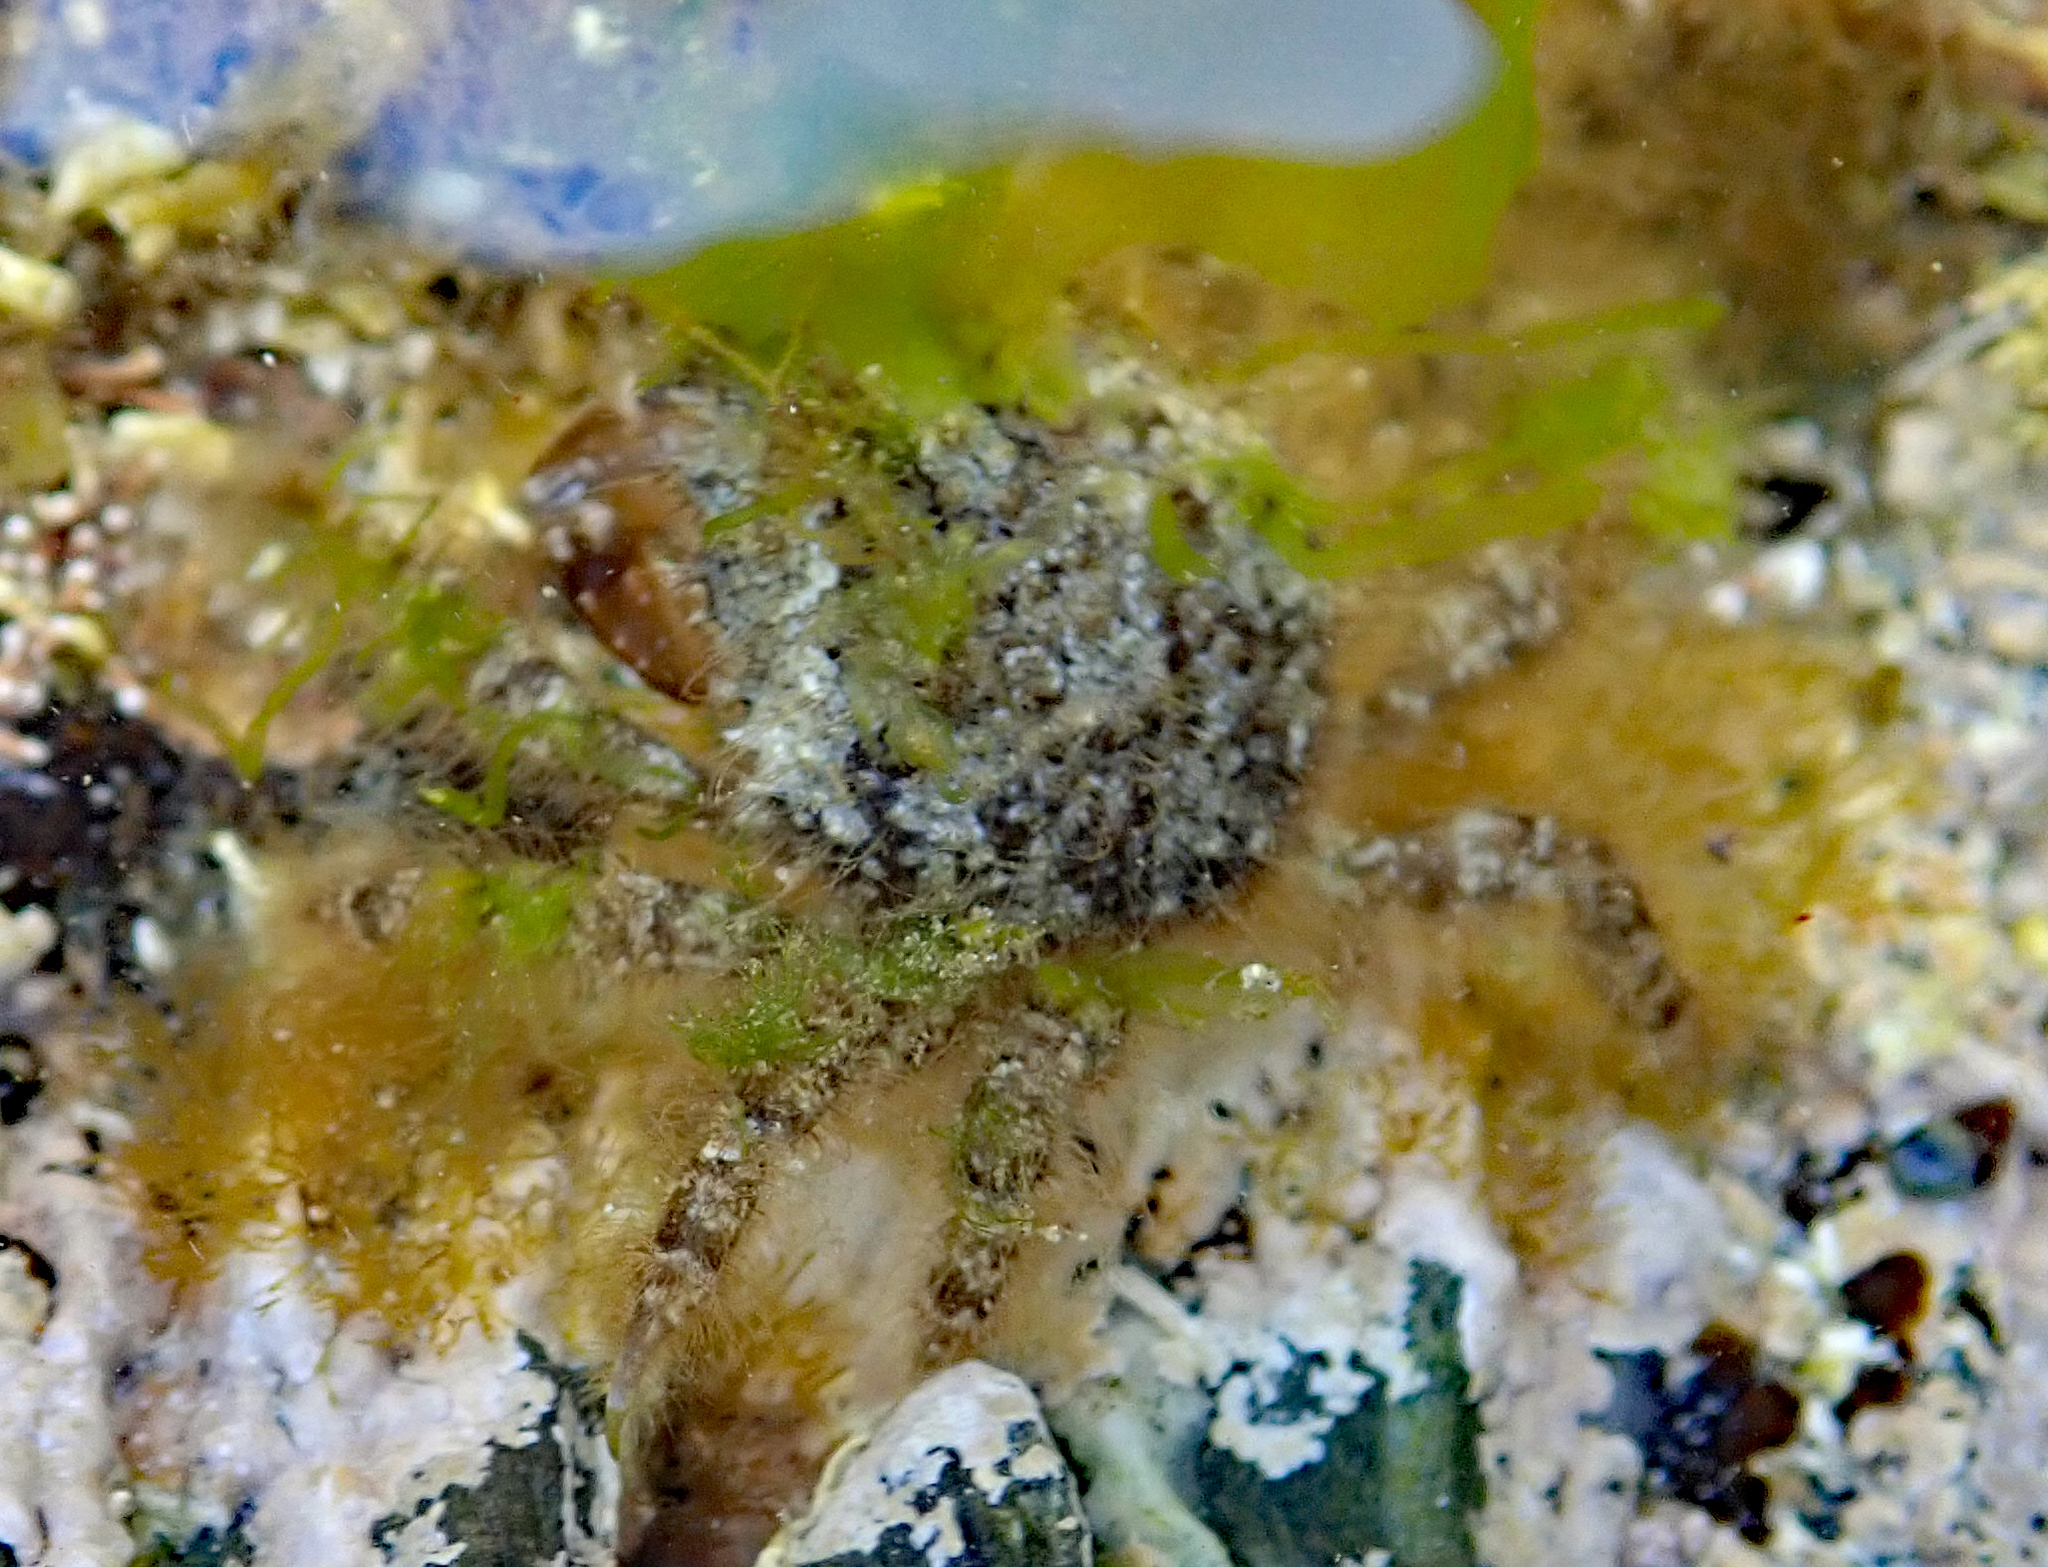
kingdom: Animalia
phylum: Arthropoda
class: Malacostraca
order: Decapoda
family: Majidae
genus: Notomithrax
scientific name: Notomithrax ursus
